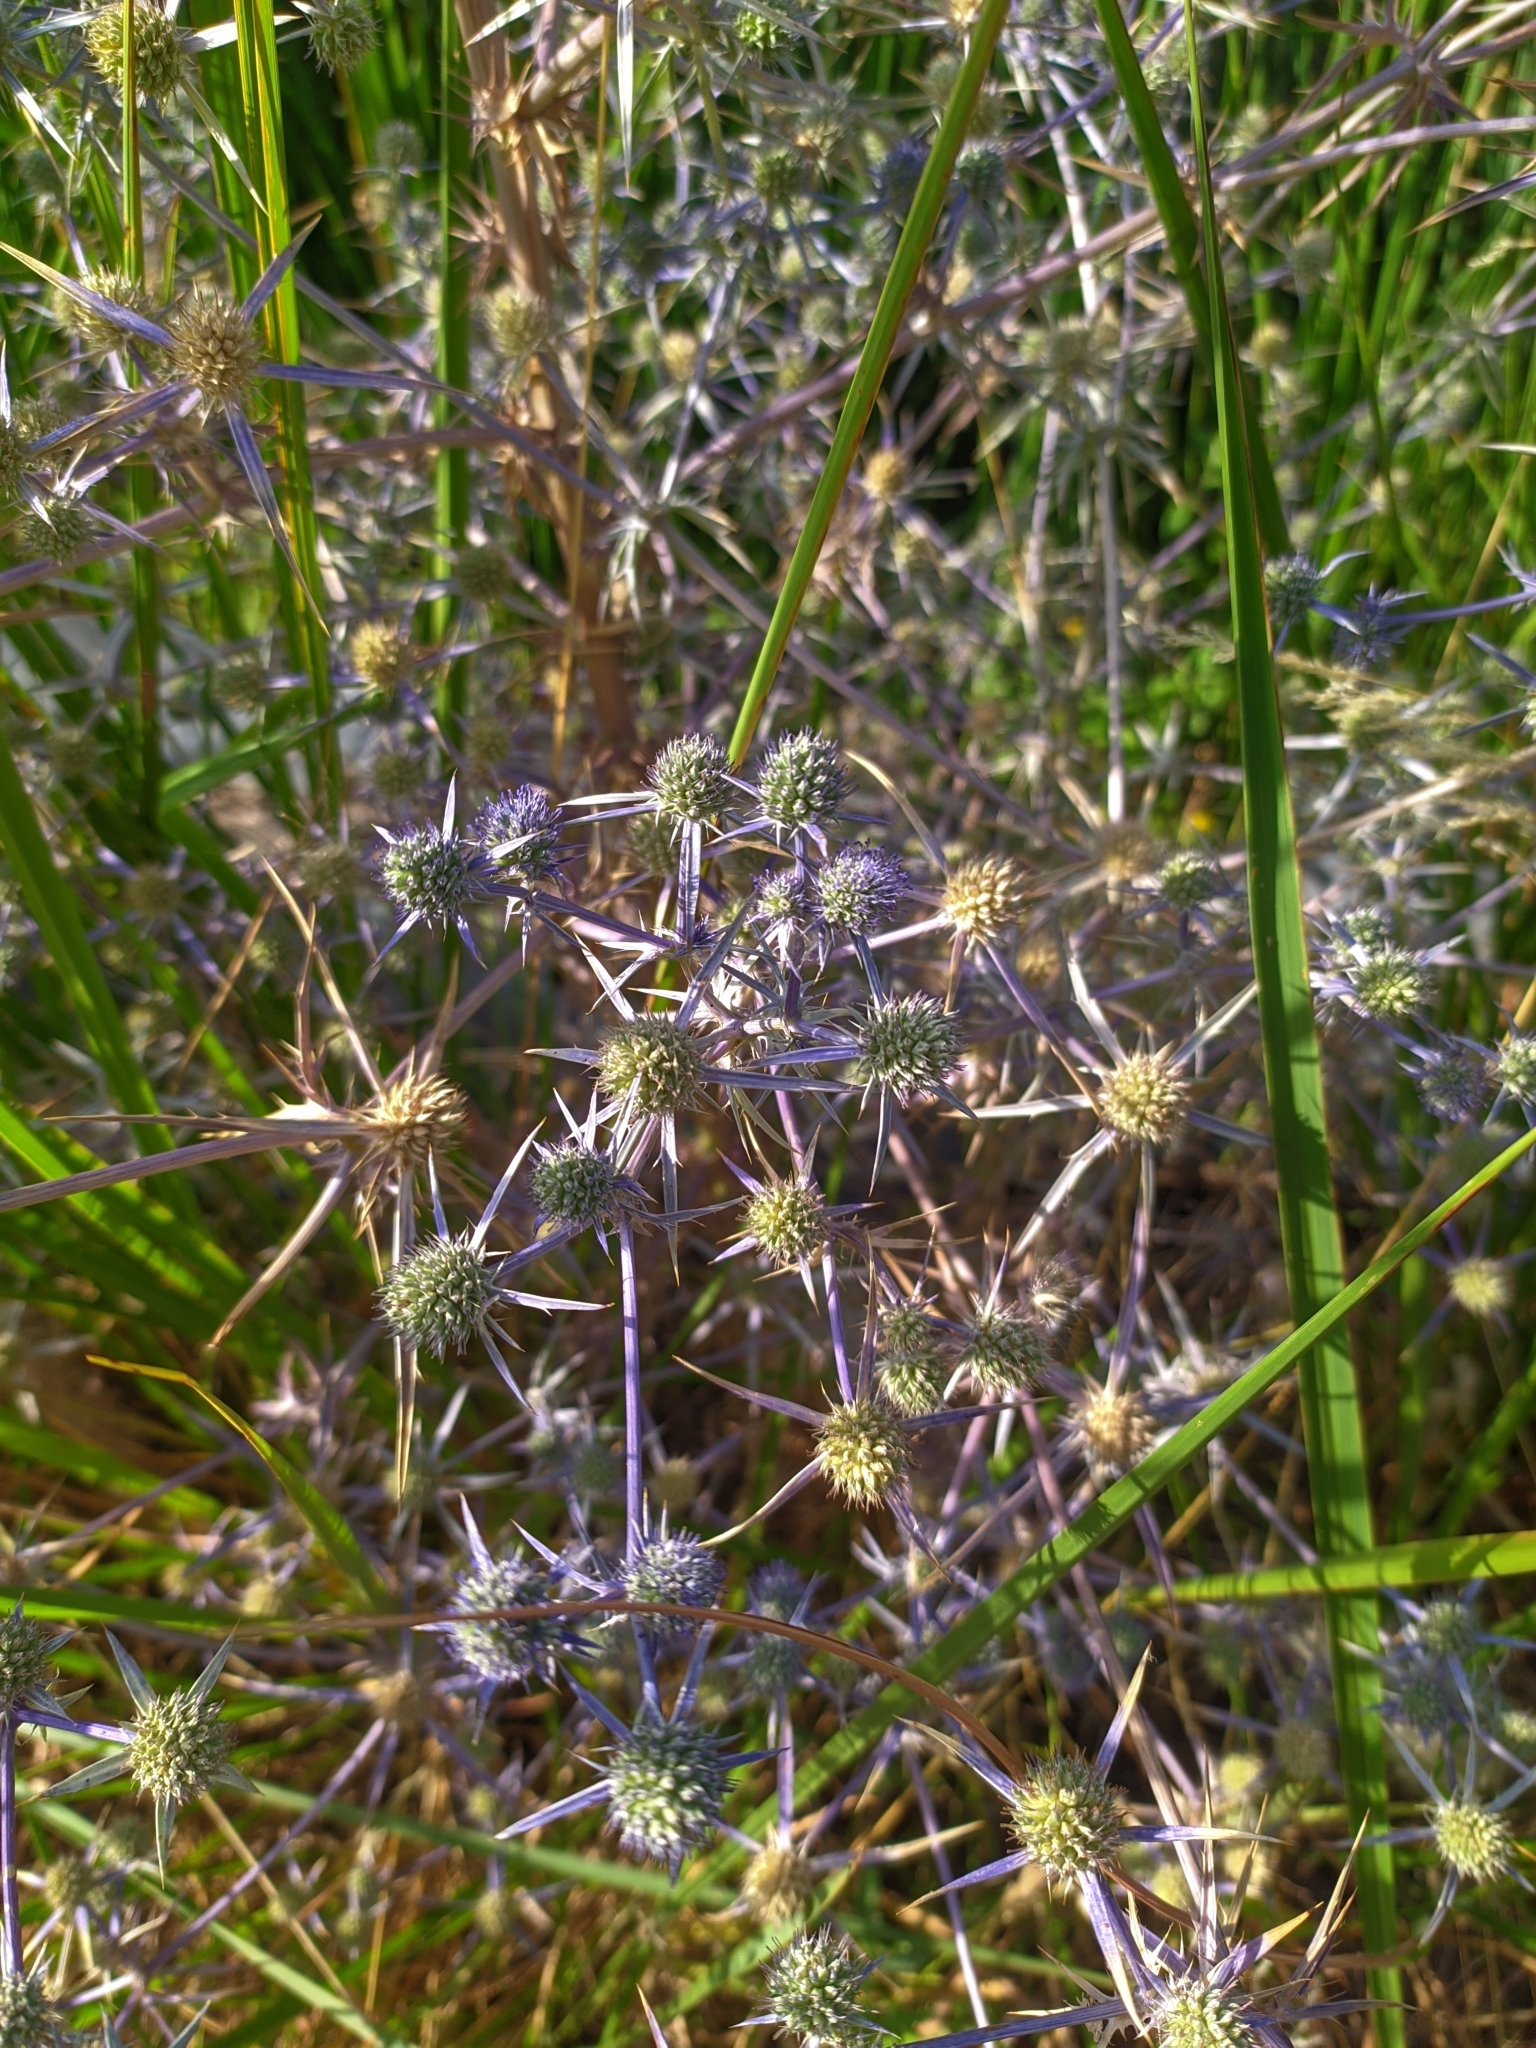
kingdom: Plantae
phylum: Tracheophyta
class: Magnoliopsida
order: Apiales
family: Apiaceae
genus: Eryngium
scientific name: Eryngium creticum
